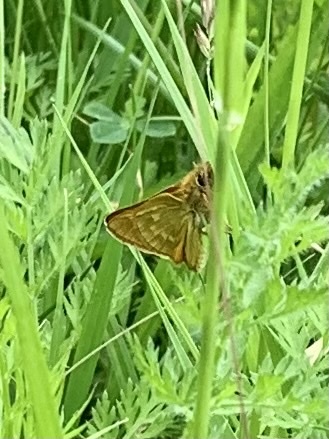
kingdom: Animalia
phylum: Arthropoda
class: Insecta
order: Lepidoptera
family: Hesperiidae
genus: Ochlodes
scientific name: Ochlodes venata
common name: Large skipper
